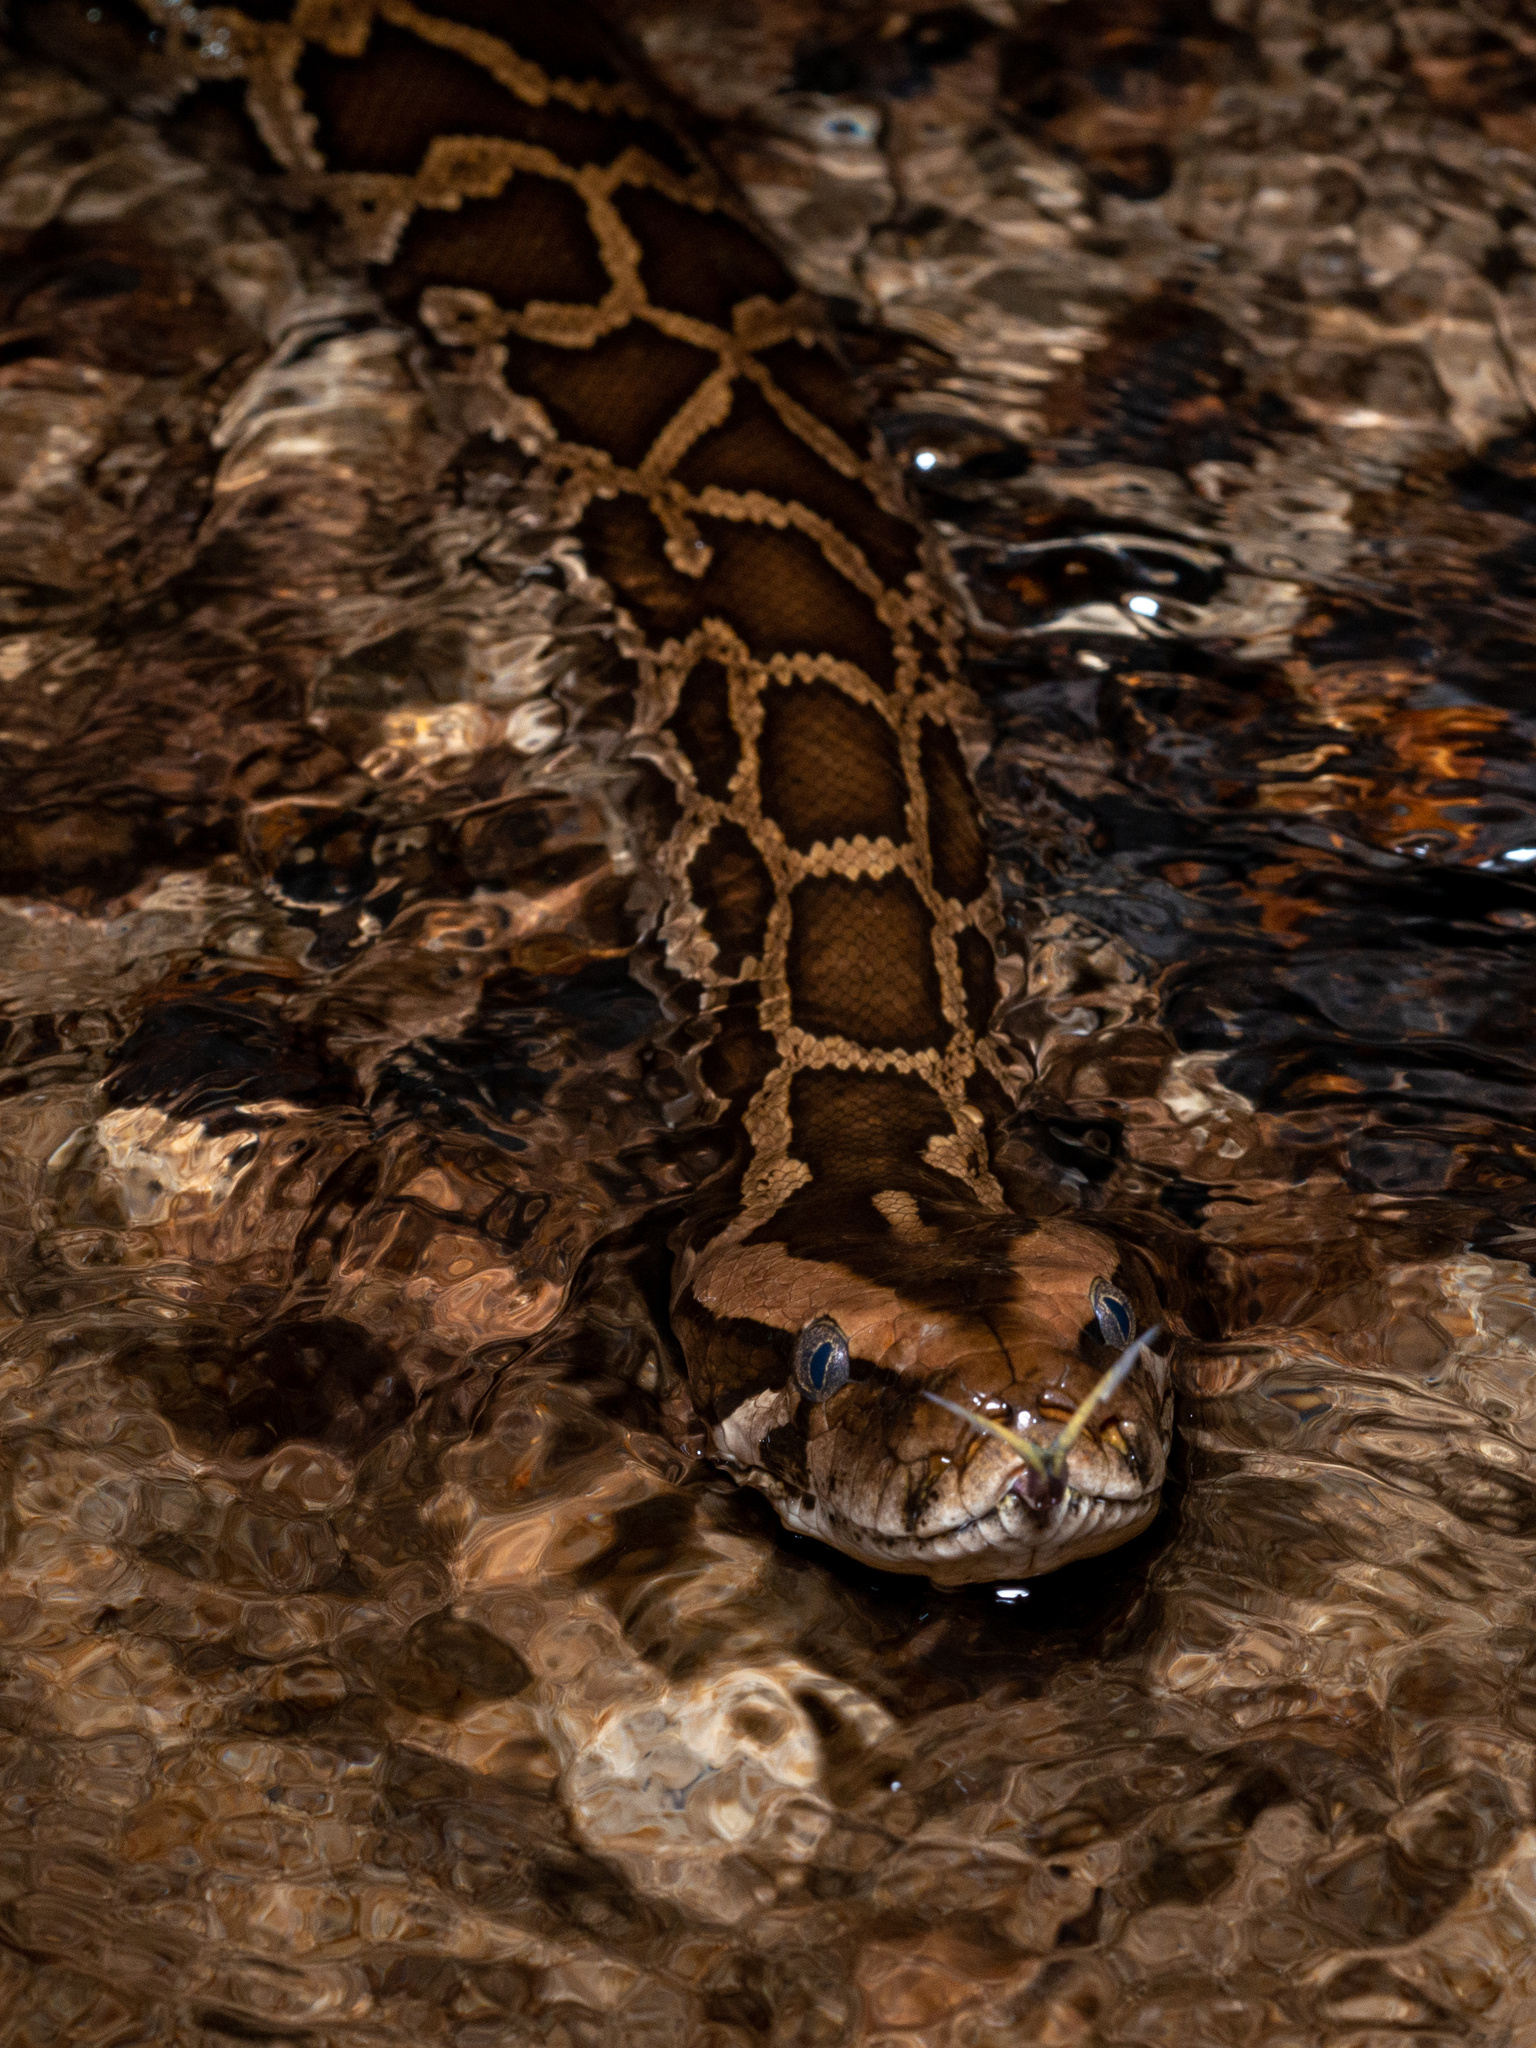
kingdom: Animalia
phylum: Chordata
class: Squamata
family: Pythonidae
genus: Python
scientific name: Python bivittatus
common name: Burmese python
